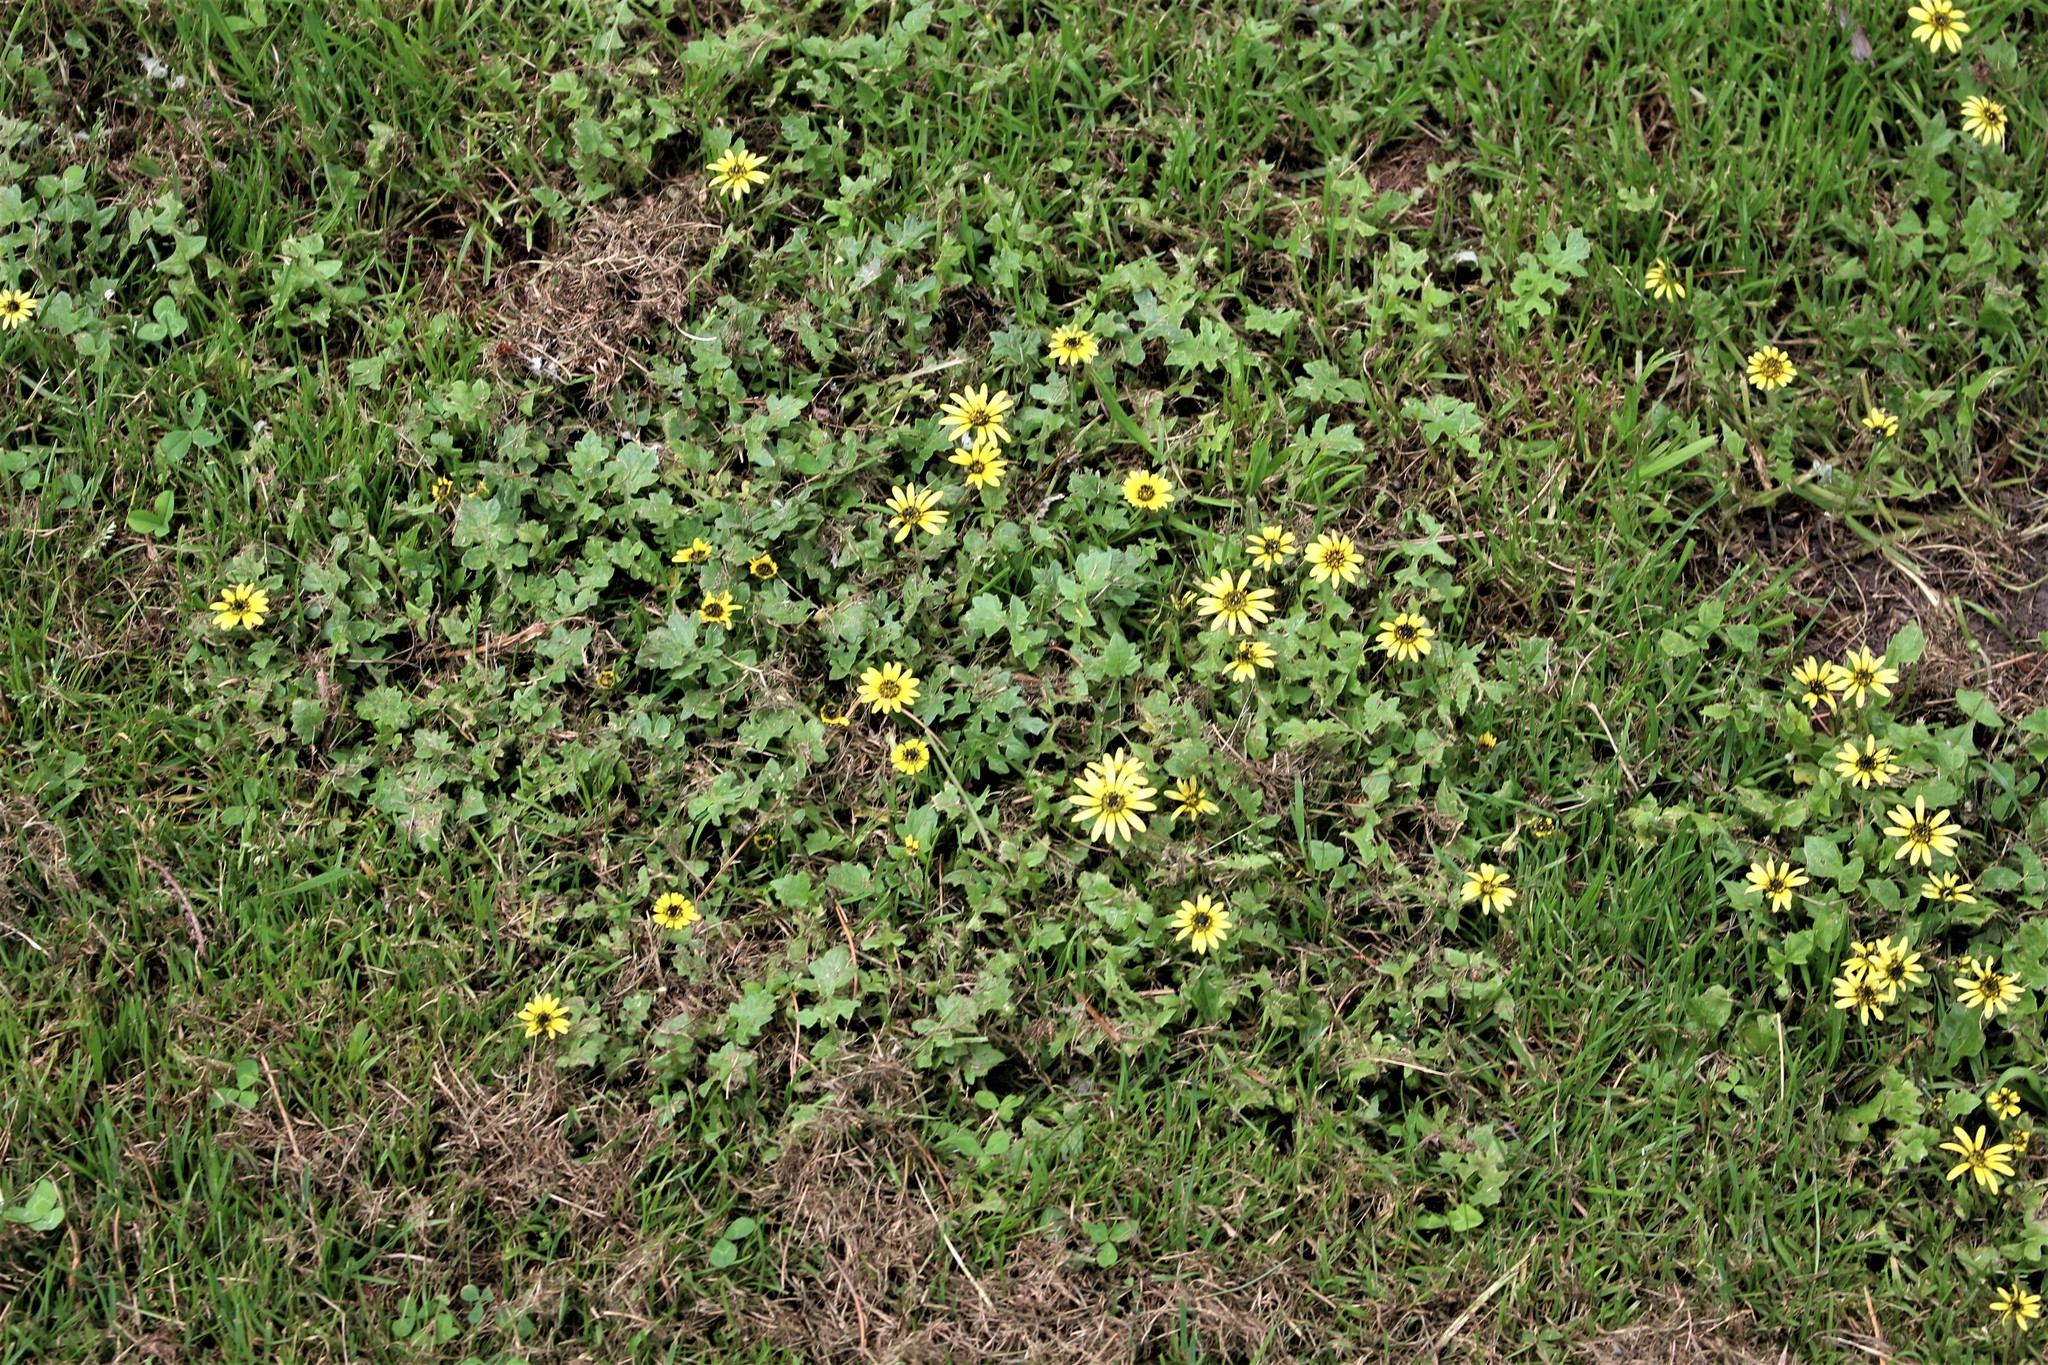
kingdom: Plantae
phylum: Tracheophyta
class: Magnoliopsida
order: Asterales
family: Asteraceae
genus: Arctotheca
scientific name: Arctotheca calendula
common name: Capeweed
